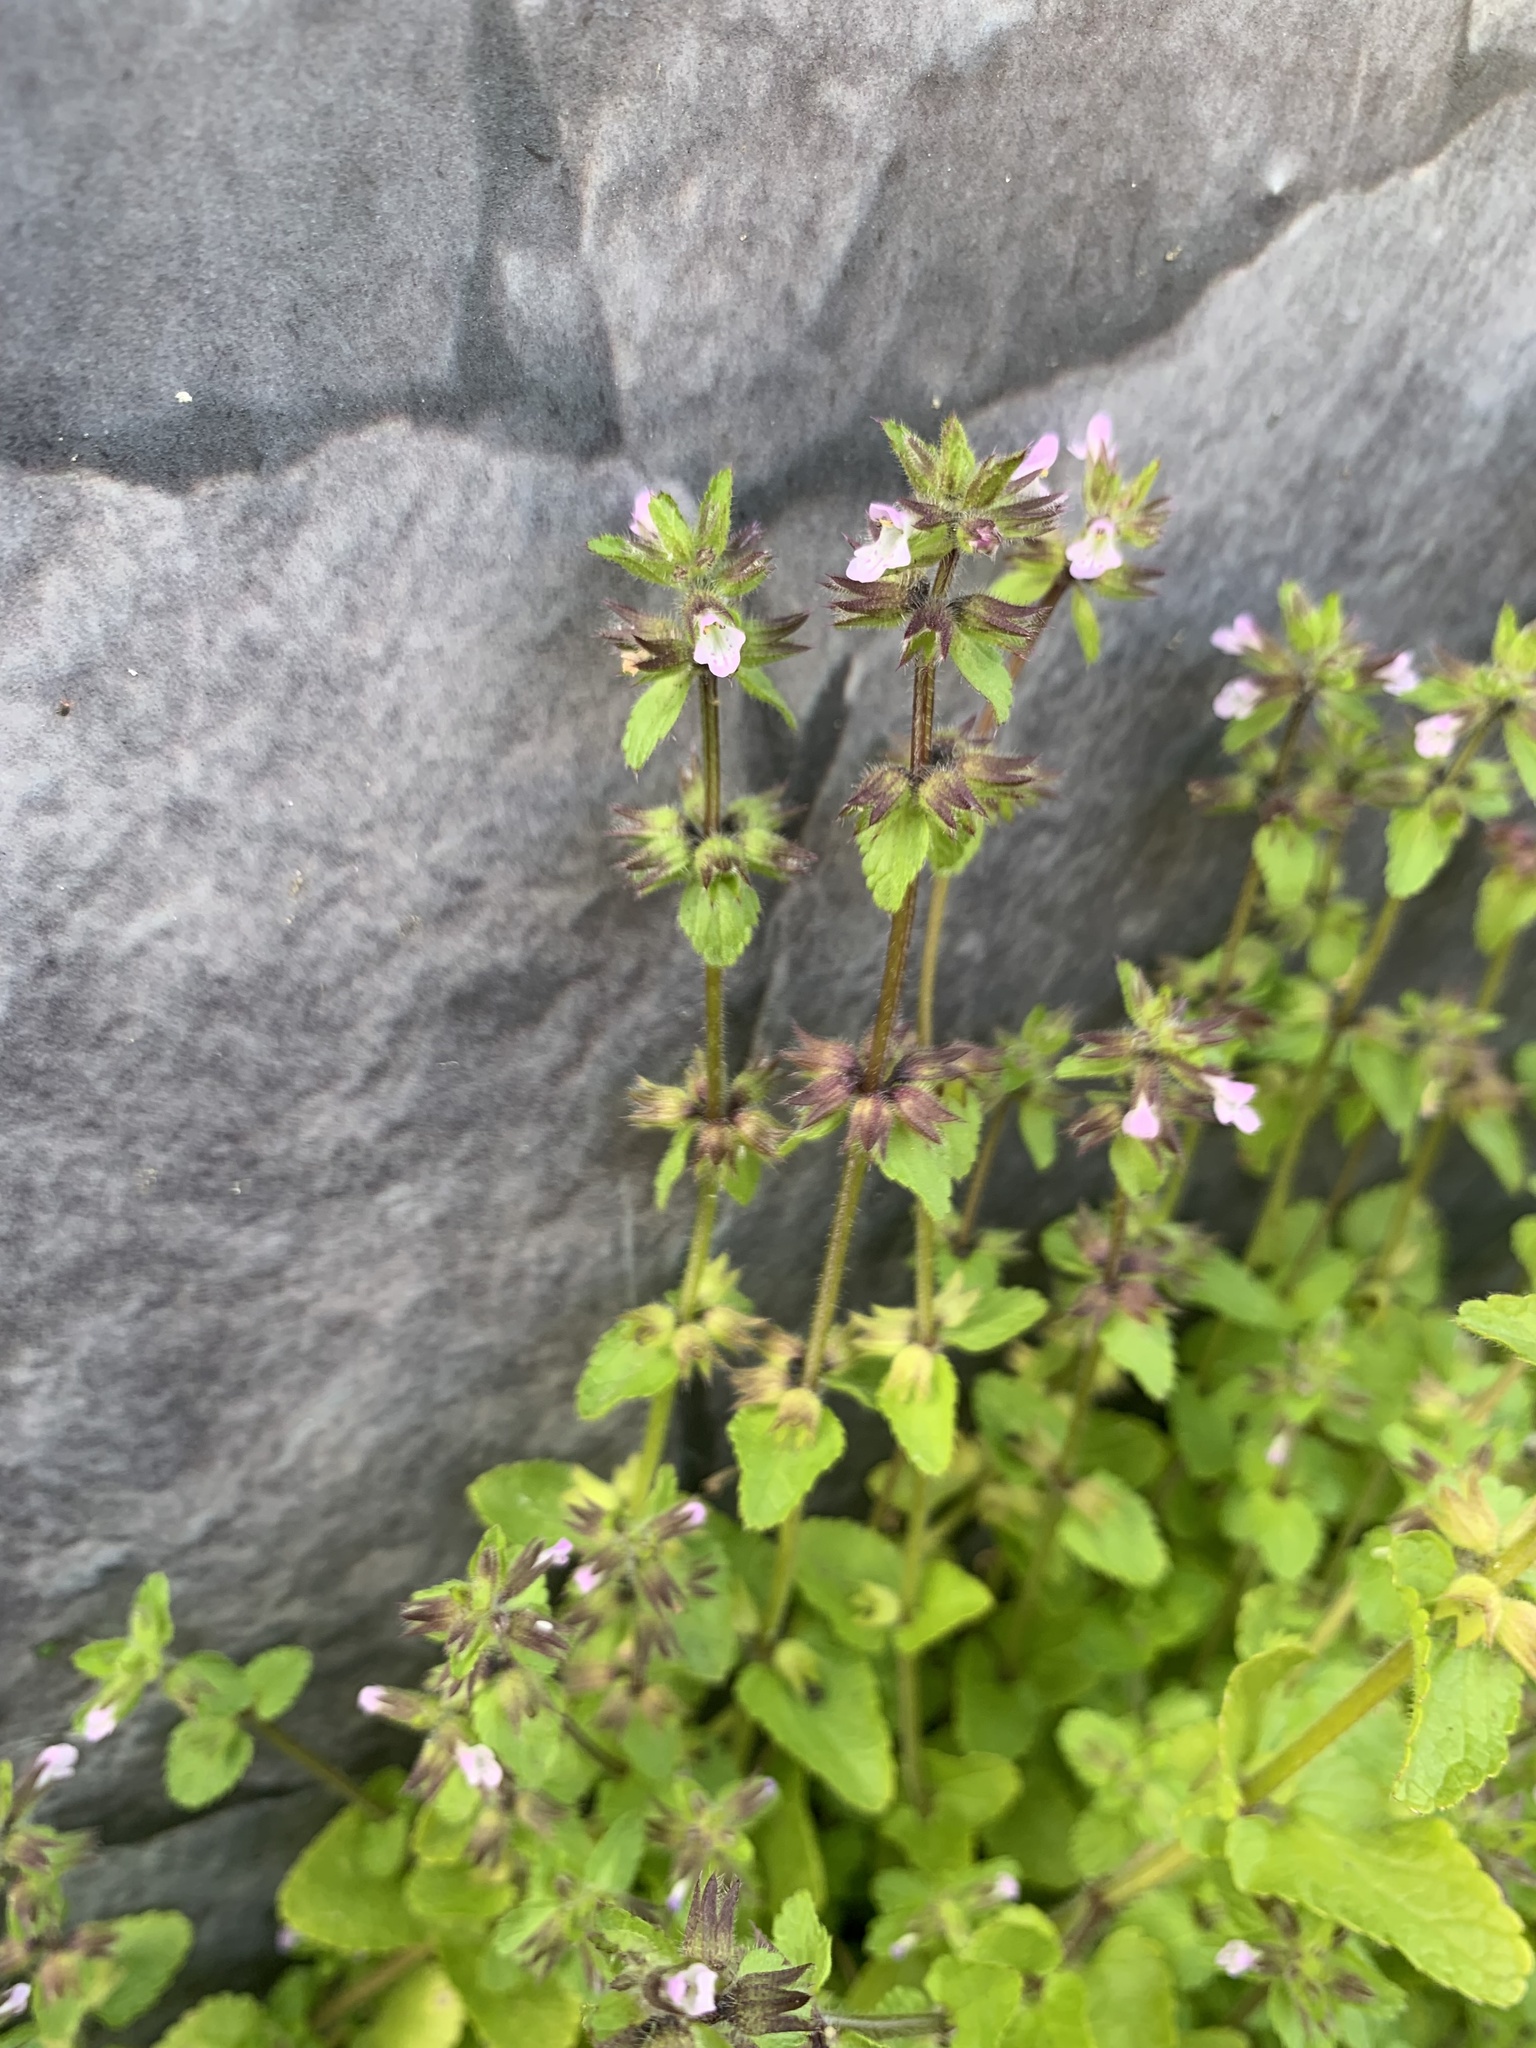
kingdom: Plantae
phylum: Tracheophyta
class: Magnoliopsida
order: Lamiales
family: Lamiaceae
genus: Clinopodium
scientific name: Clinopodium chinense
